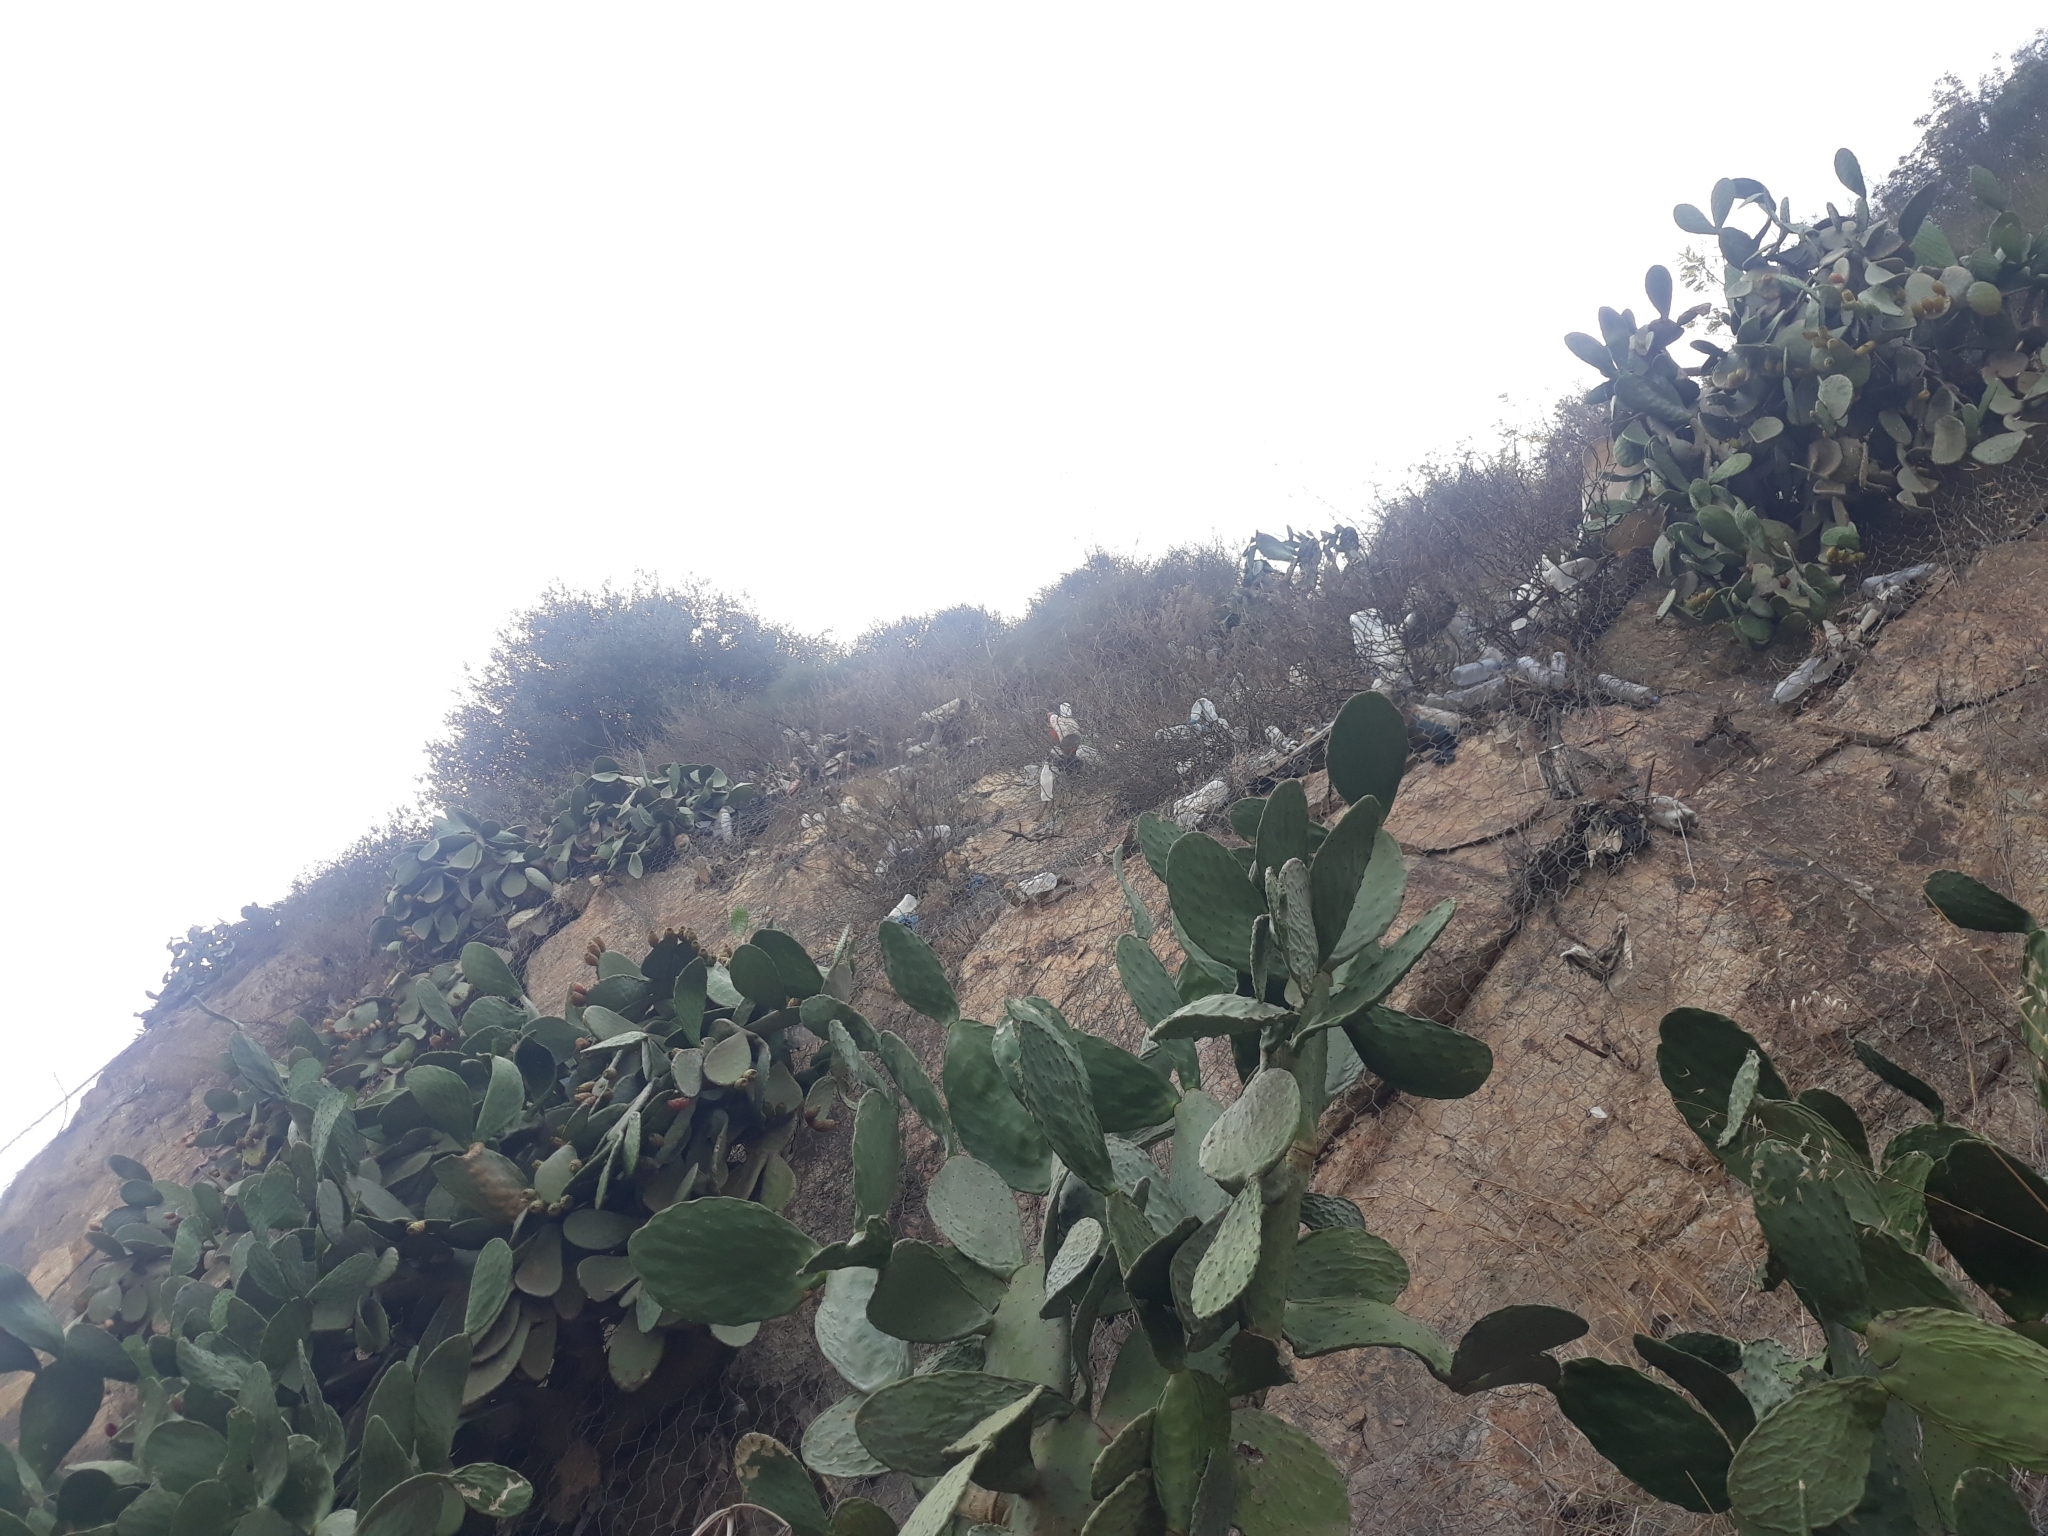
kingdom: Plantae
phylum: Tracheophyta
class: Magnoliopsida
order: Caryophyllales
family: Cactaceae
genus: Opuntia
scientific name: Opuntia ficus-indica
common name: Barbary fig
